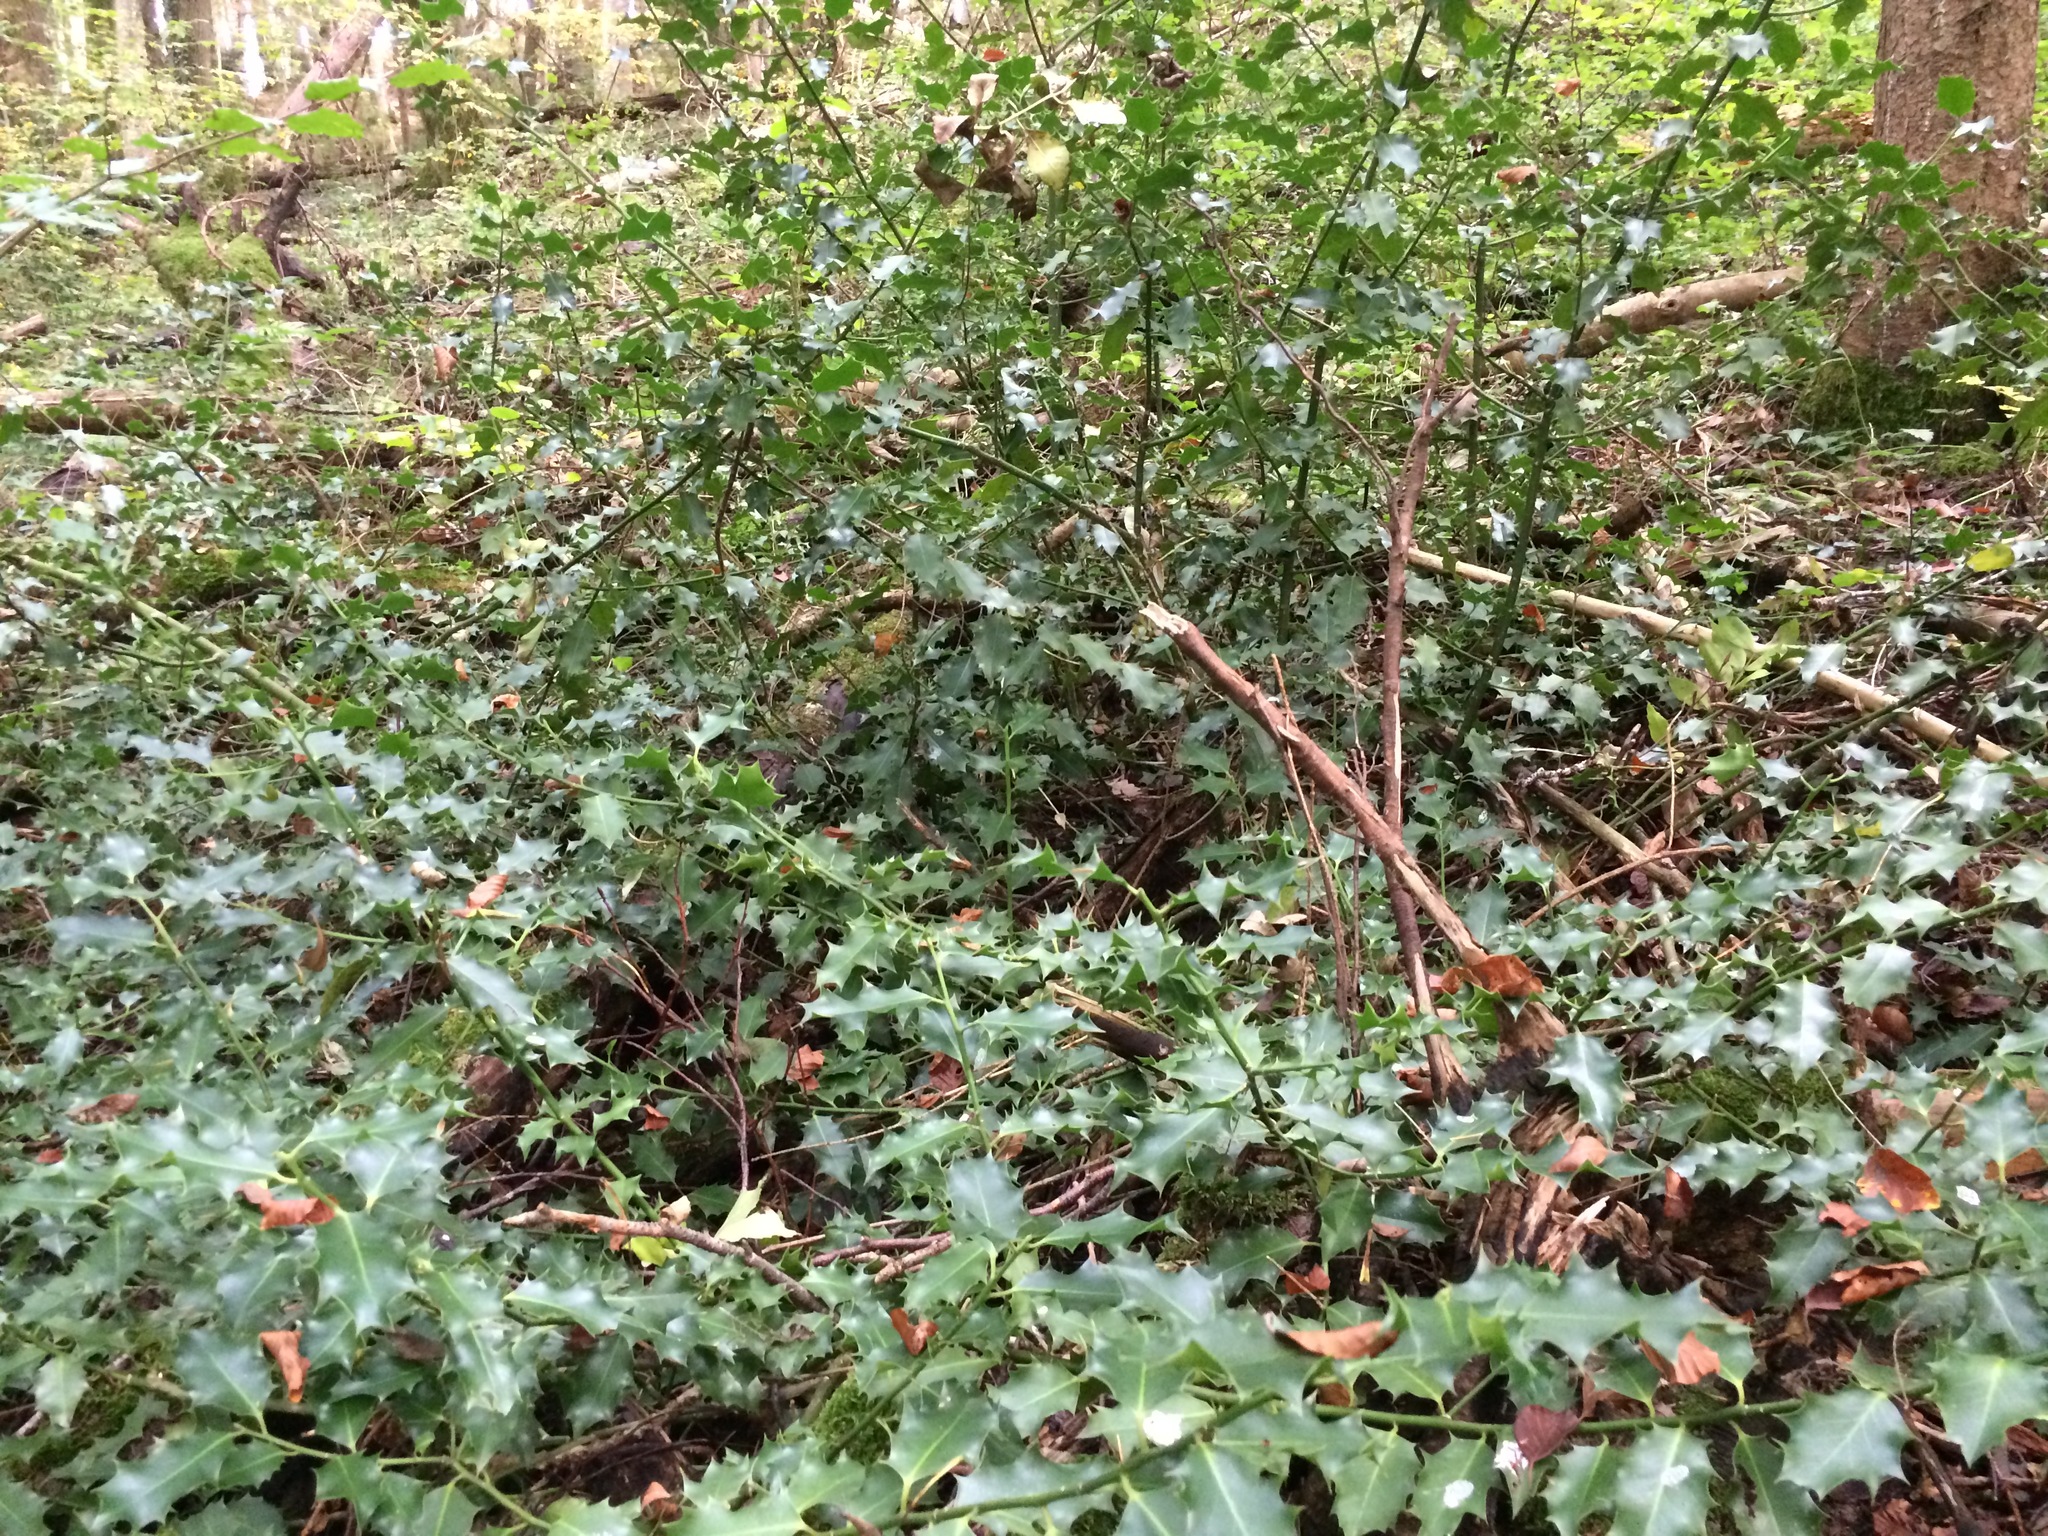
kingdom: Plantae
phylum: Tracheophyta
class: Magnoliopsida
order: Aquifoliales
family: Aquifoliaceae
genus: Ilex
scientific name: Ilex aquifolium
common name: English holly
